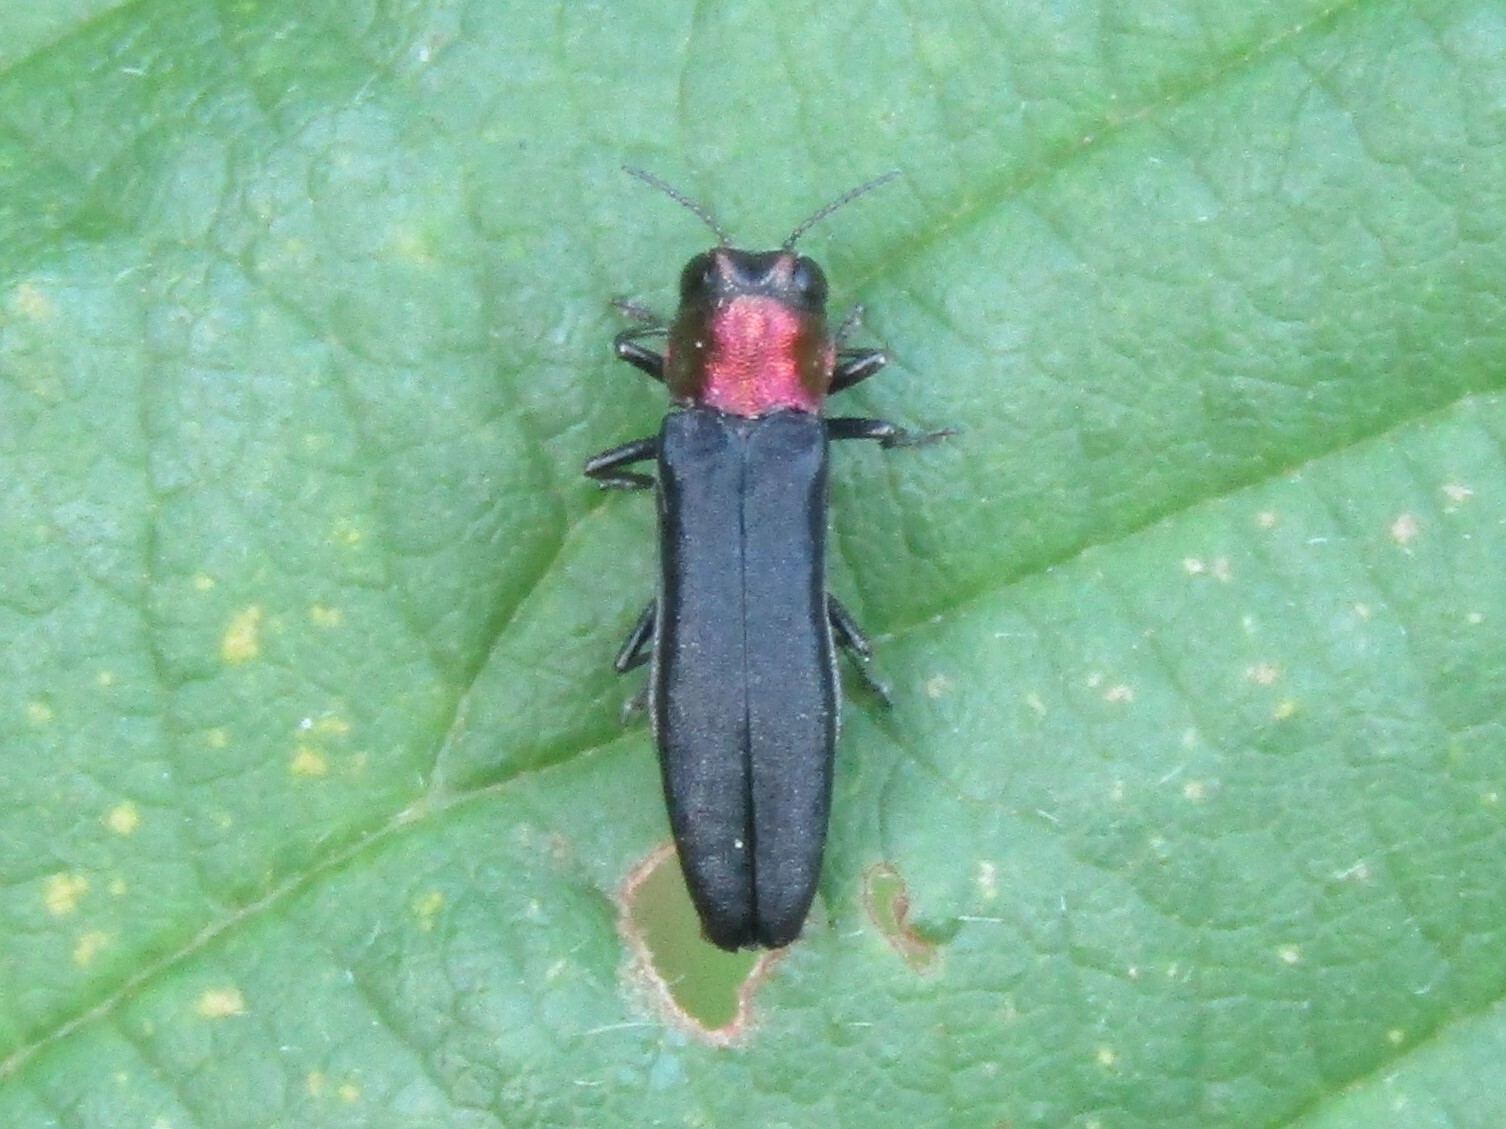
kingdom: Animalia
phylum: Arthropoda
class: Insecta
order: Coleoptera
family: Buprestidae
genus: Agrilus
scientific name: Agrilus ruficollis
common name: Red-necked cane borer beetle
